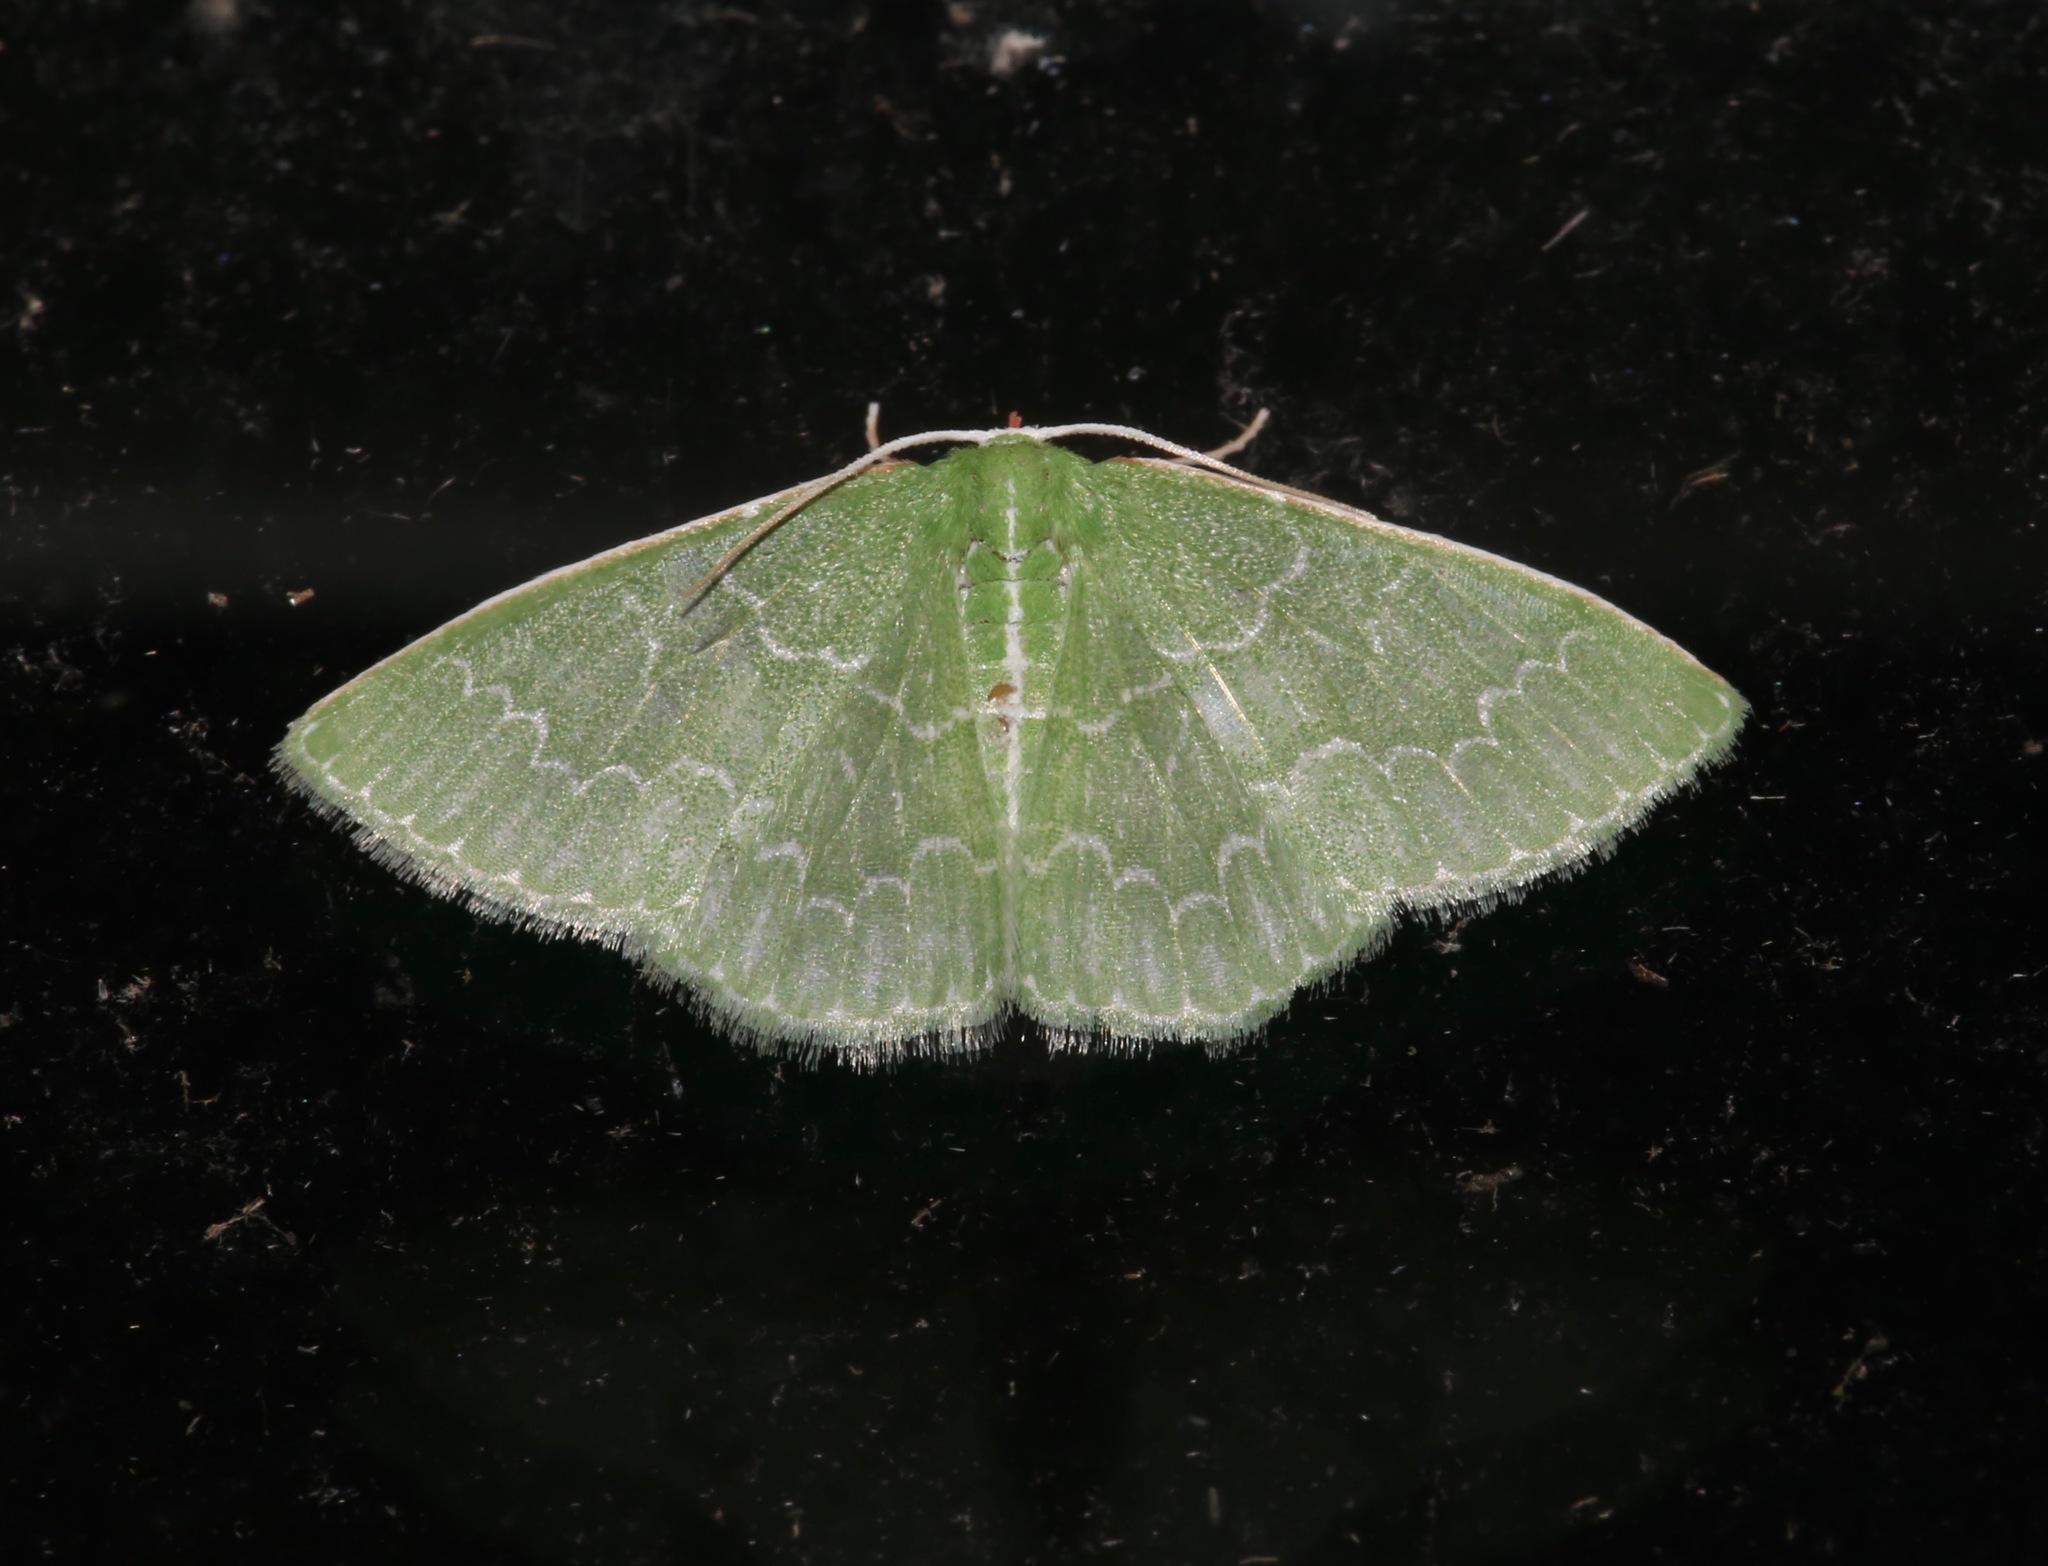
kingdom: Animalia
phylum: Arthropoda
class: Insecta
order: Lepidoptera
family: Geometridae
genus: Synchlora
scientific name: Synchlora frondaria
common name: Southern emerald
